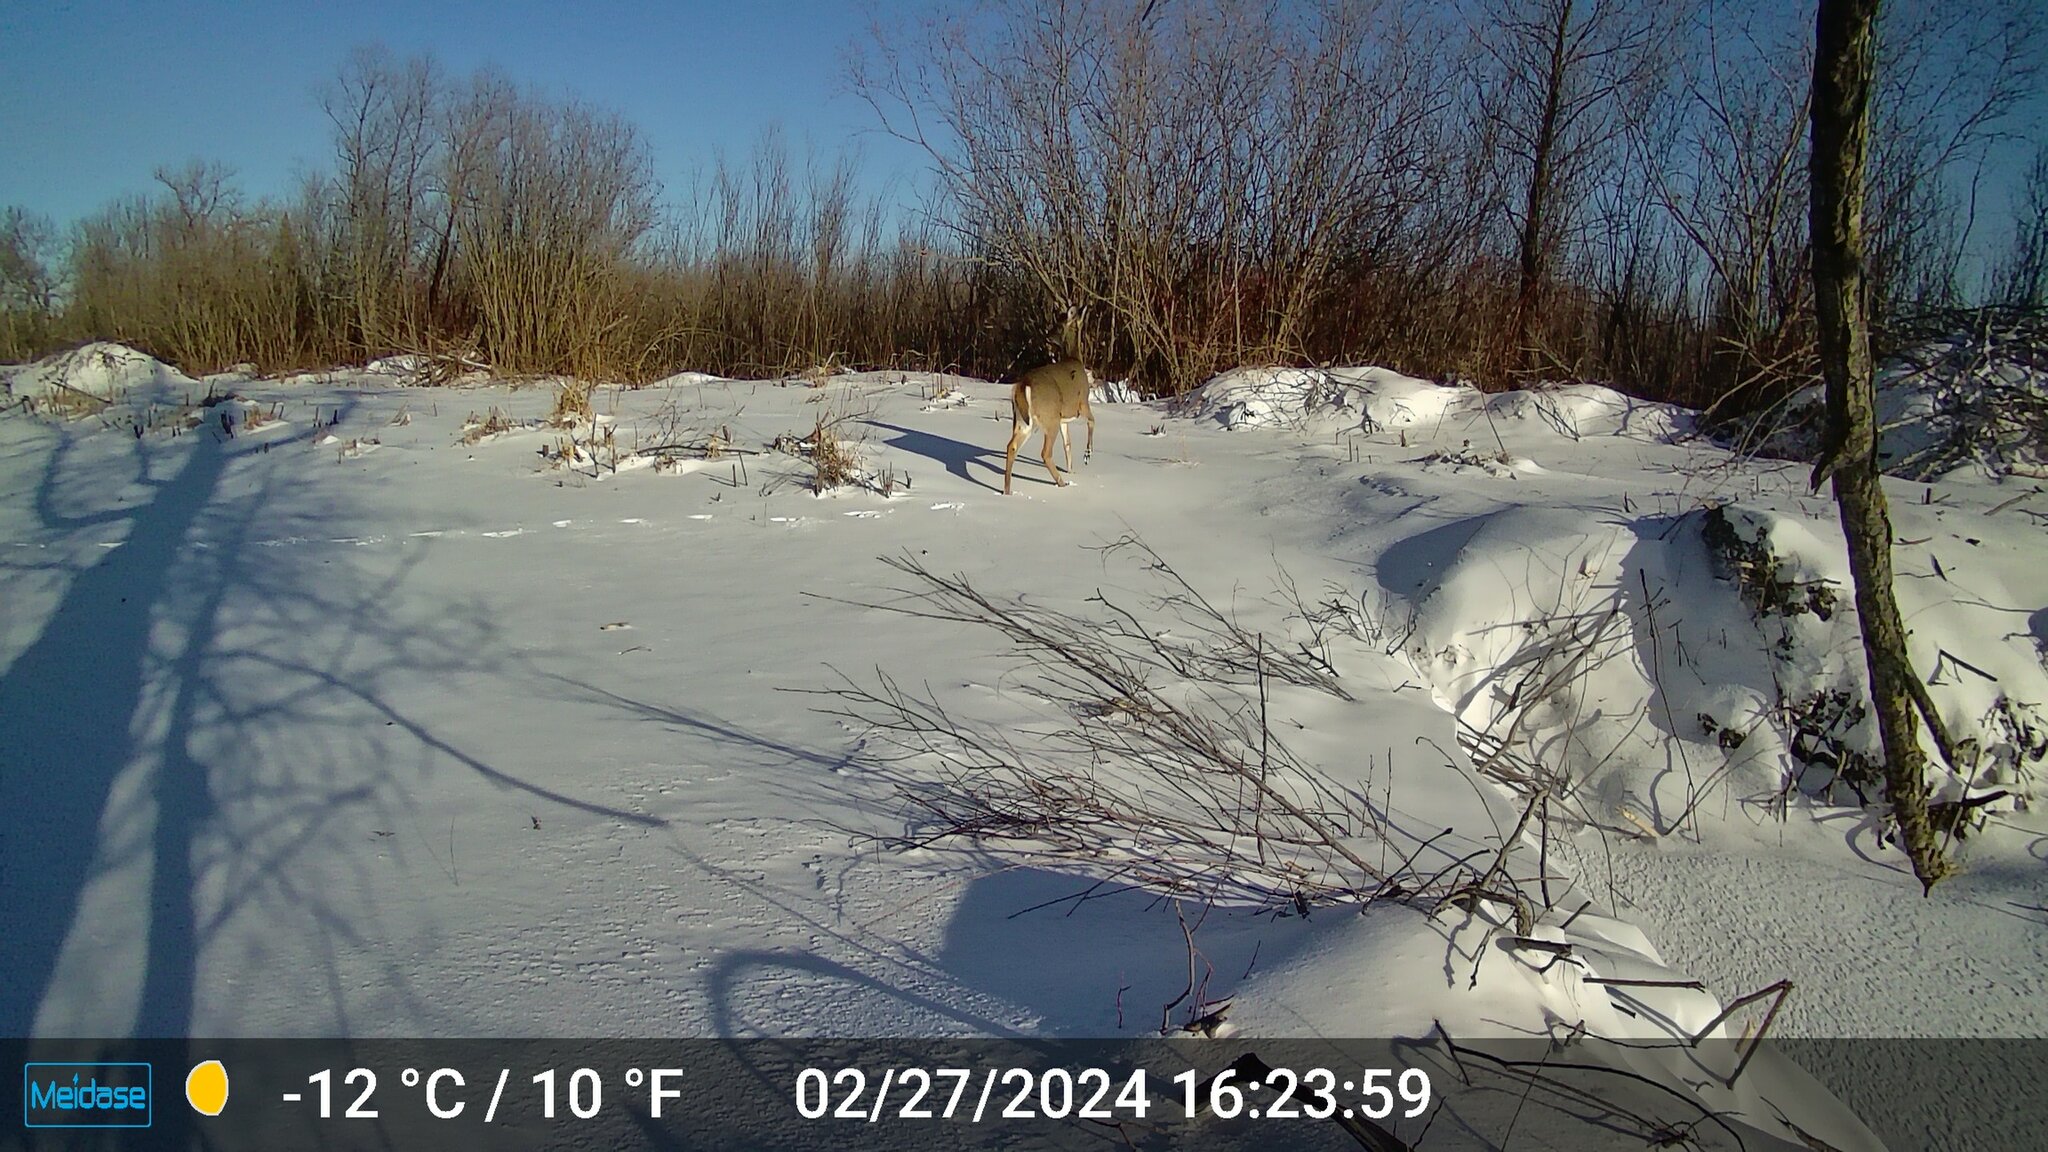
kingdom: Animalia
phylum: Chordata
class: Mammalia
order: Artiodactyla
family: Cervidae
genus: Odocoileus
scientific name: Odocoileus virginianus
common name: White-tailed deer
